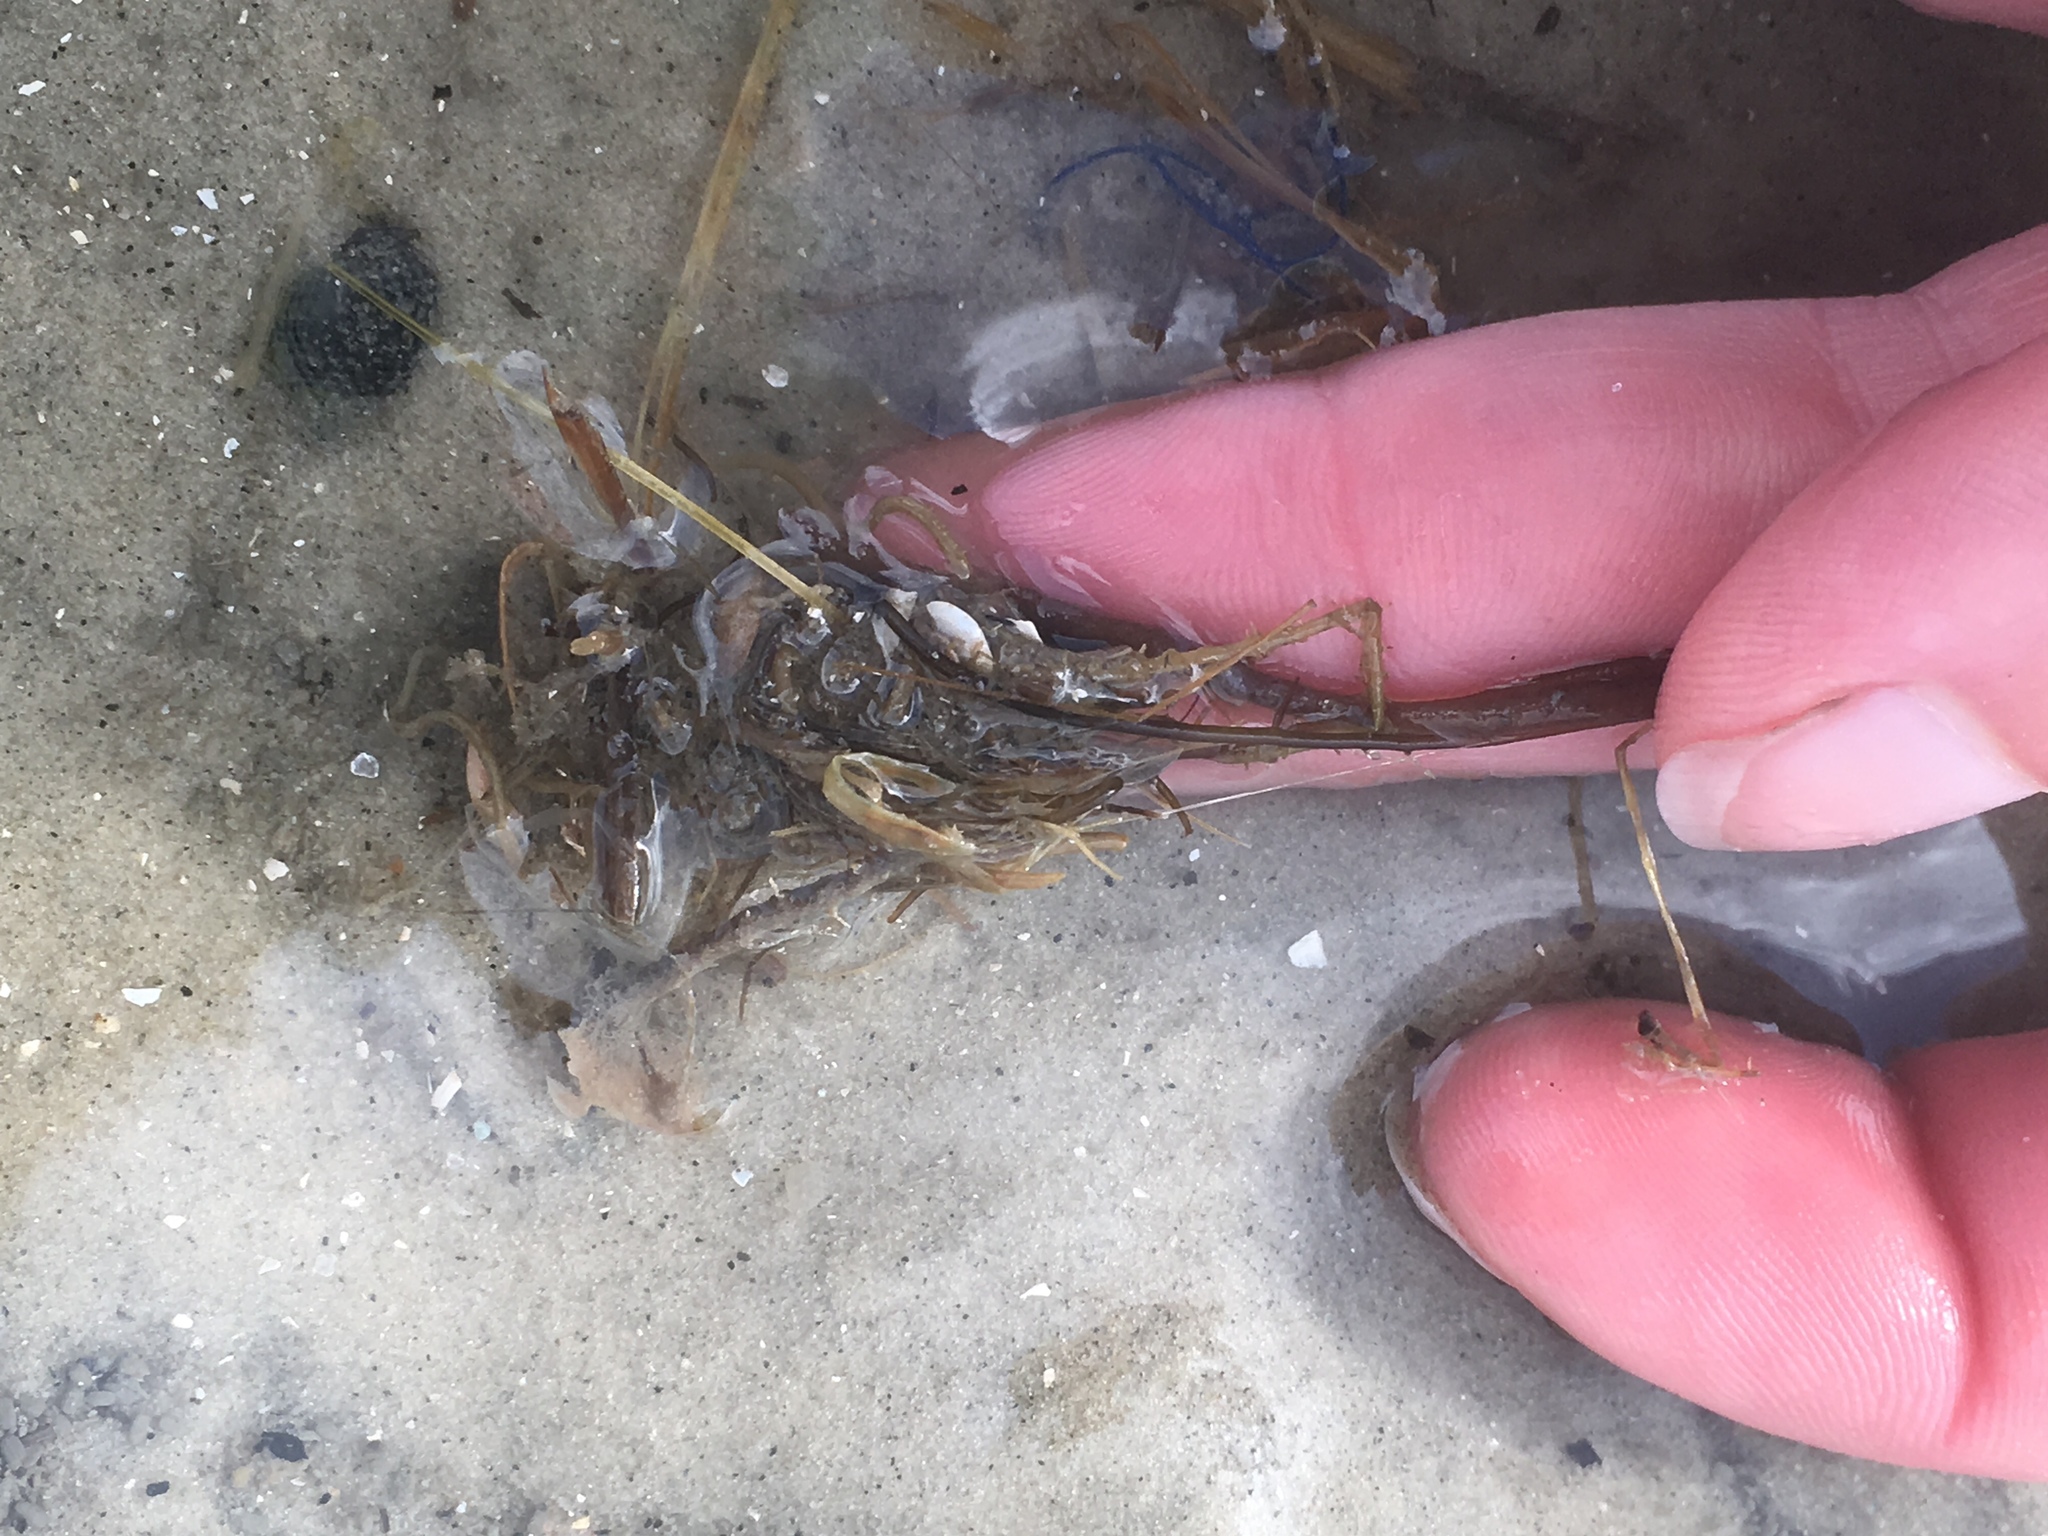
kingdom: Animalia
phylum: Annelida
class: Polychaeta
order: Eunicida
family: Onuphidae
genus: Diopatra
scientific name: Diopatra cuprea
